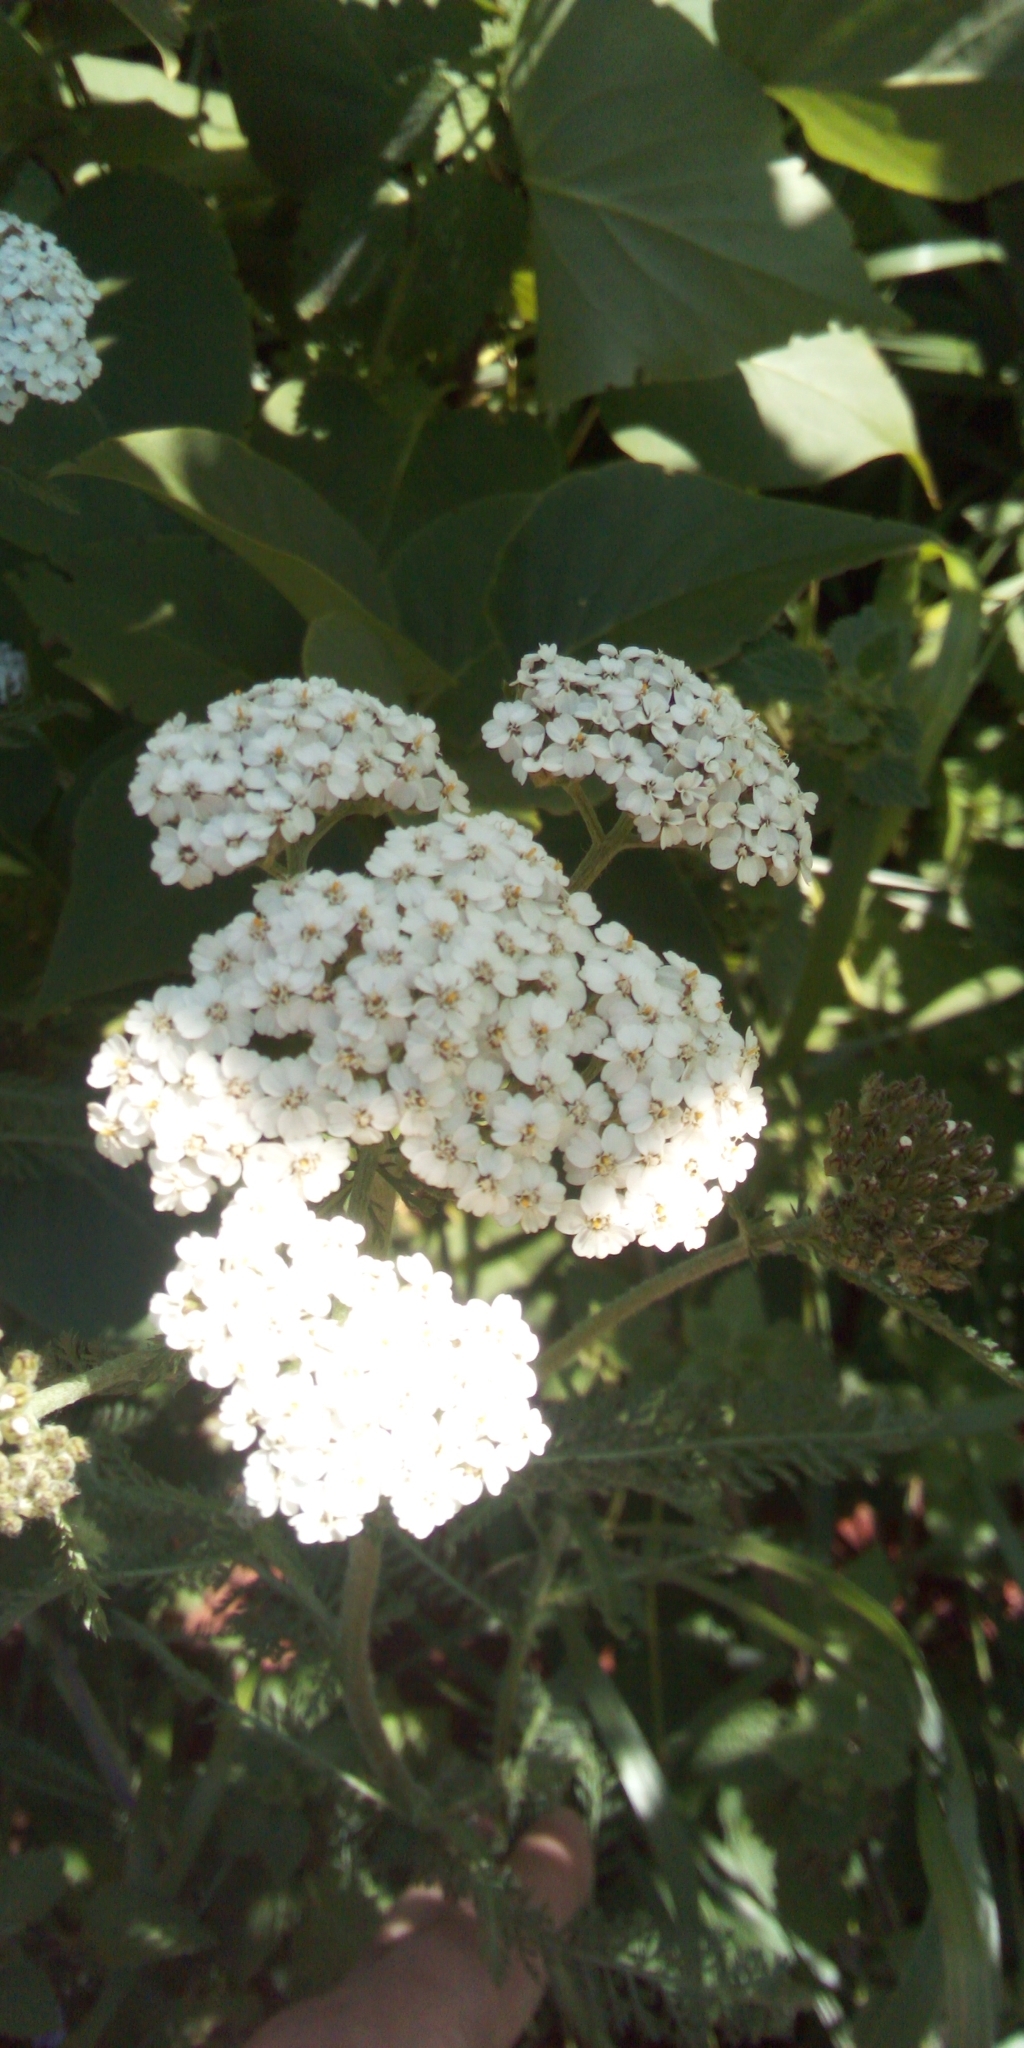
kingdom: Plantae
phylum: Tracheophyta
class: Magnoliopsida
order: Asterales
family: Asteraceae
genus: Achillea
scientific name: Achillea millefolium
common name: Yarrow
